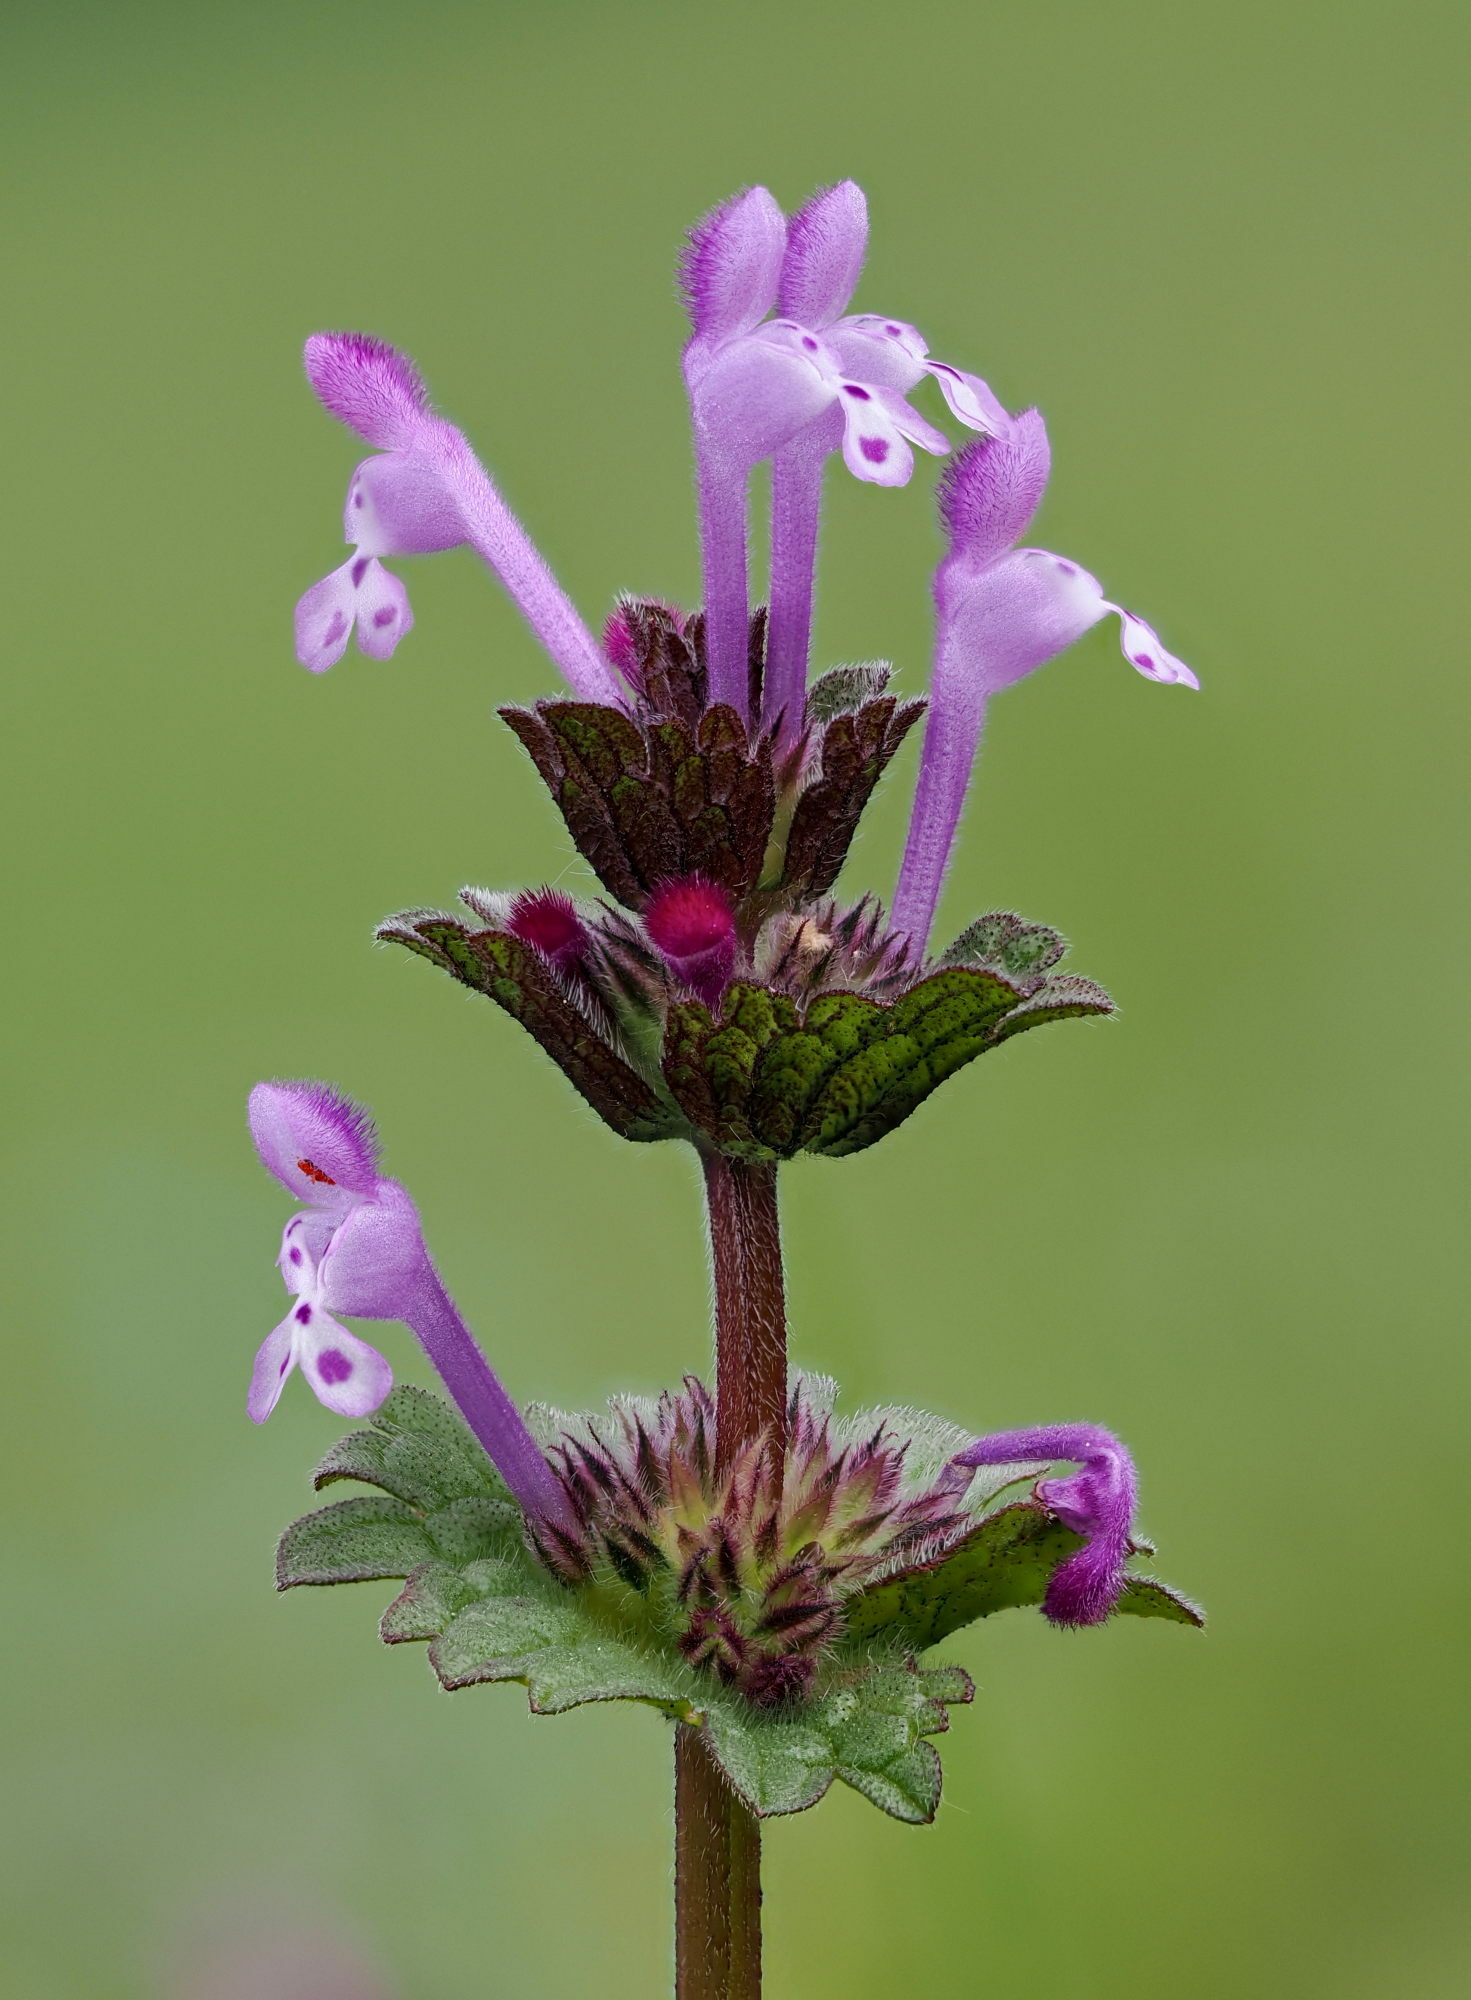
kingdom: Plantae
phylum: Tracheophyta
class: Magnoliopsida
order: Lamiales
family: Lamiaceae
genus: Lamium
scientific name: Lamium amplexicaule
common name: Henbit dead-nettle
